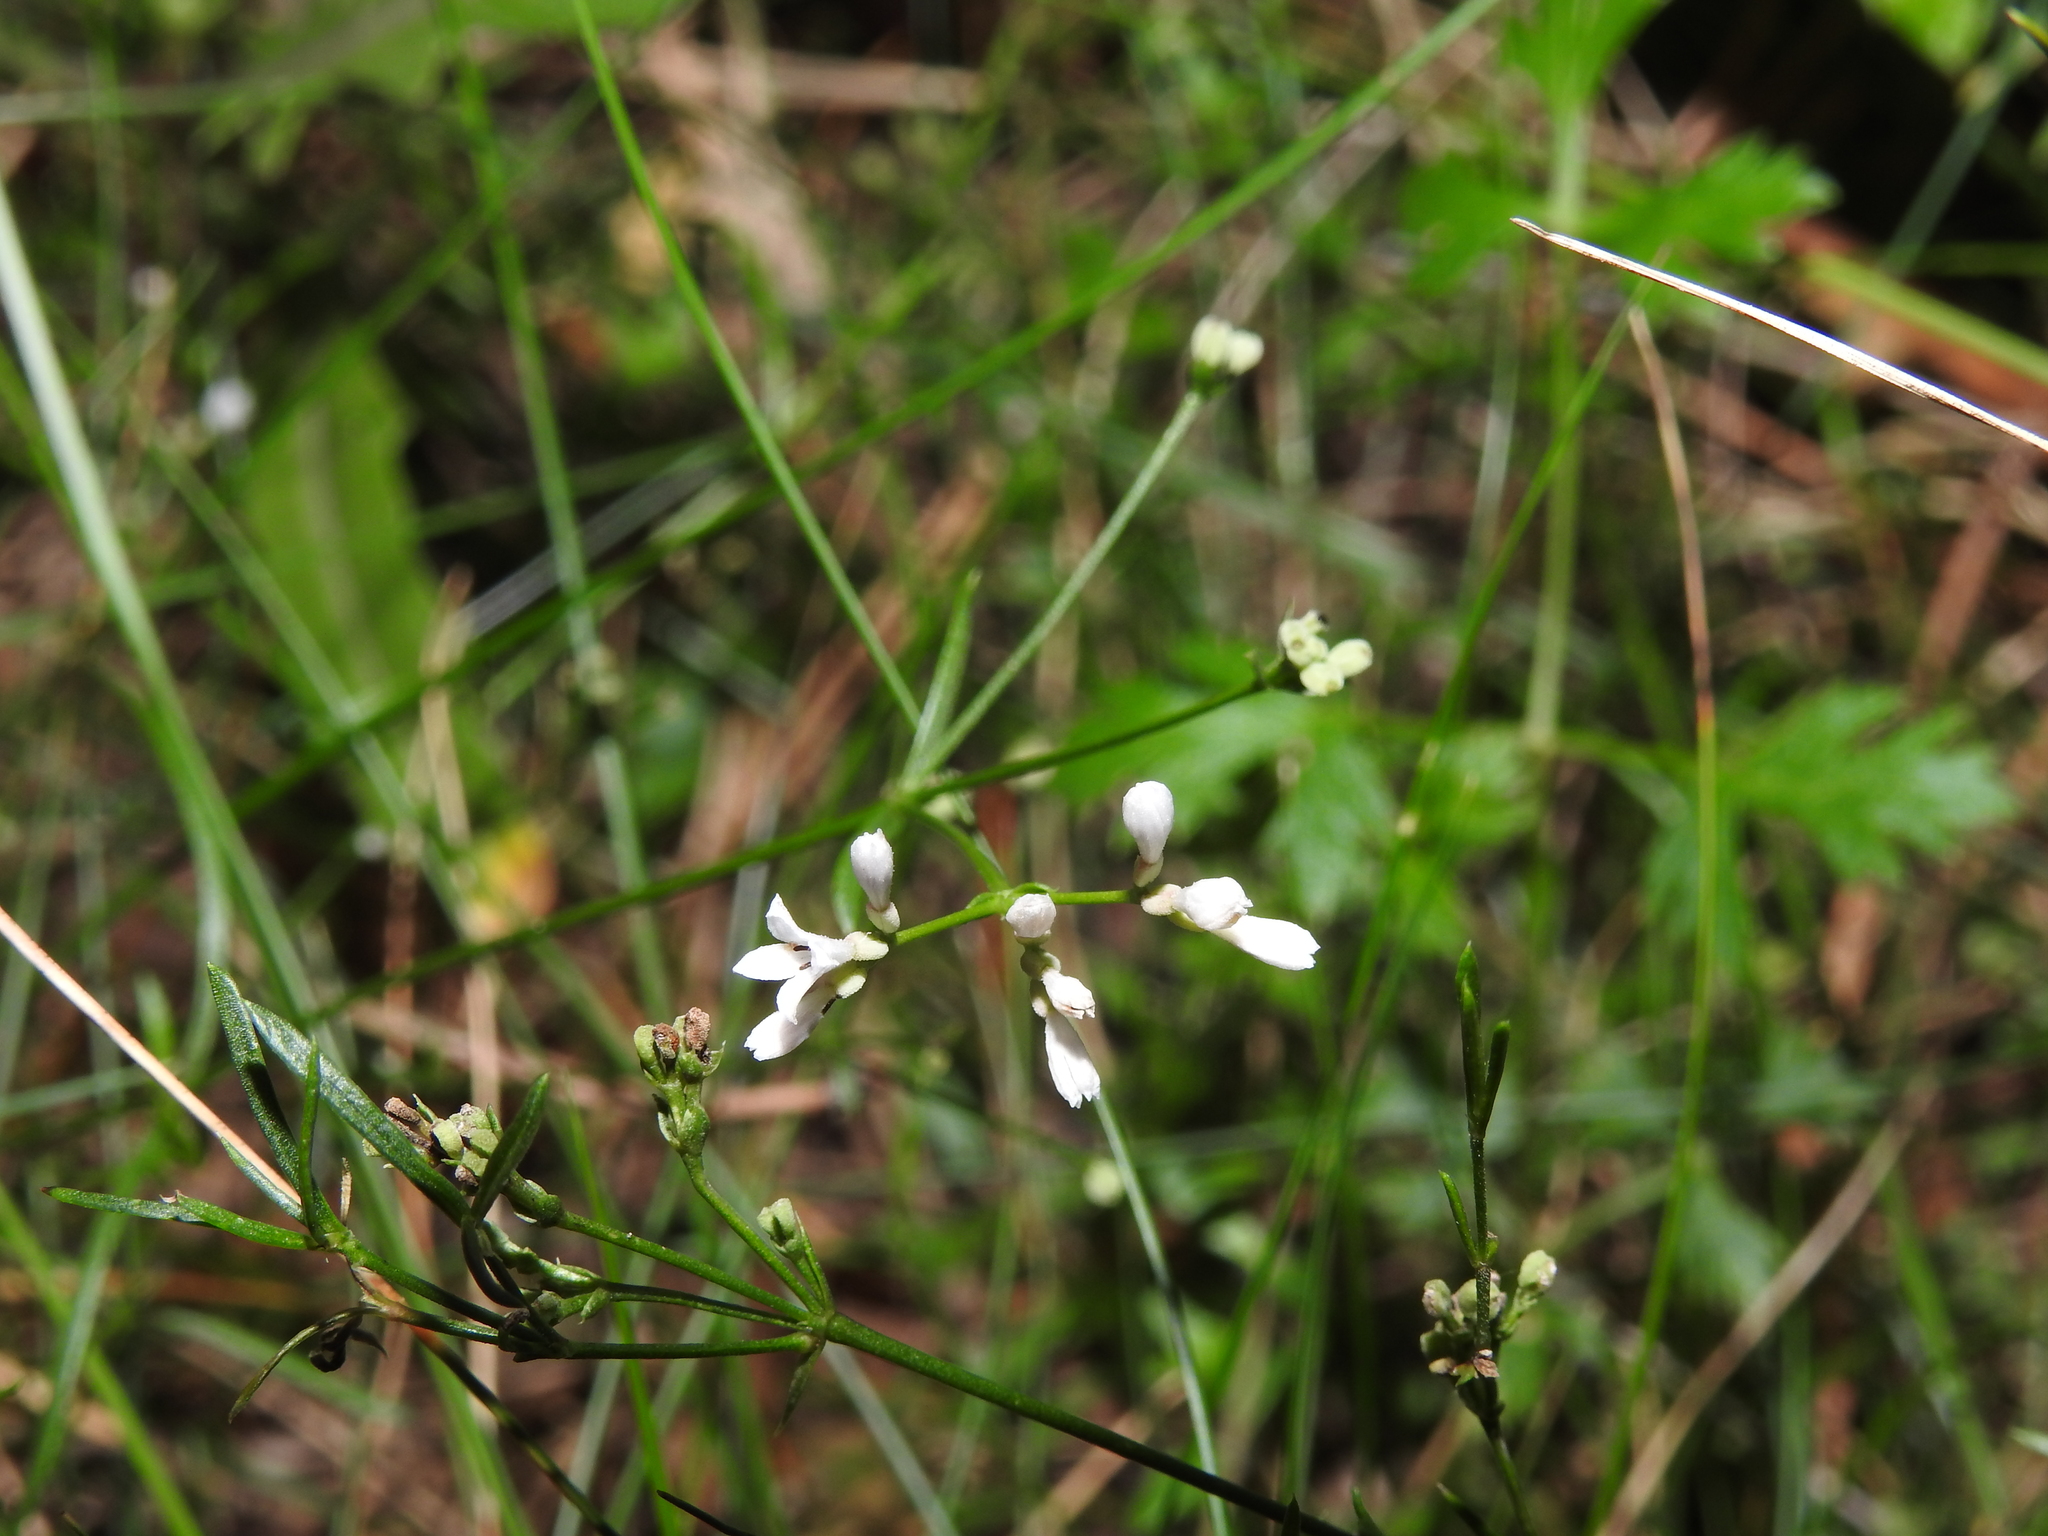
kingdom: Plantae
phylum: Tracheophyta
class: Magnoliopsida
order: Gentianales
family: Rubiaceae
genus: Cynanchica
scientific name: Cynanchica pyrenaica
